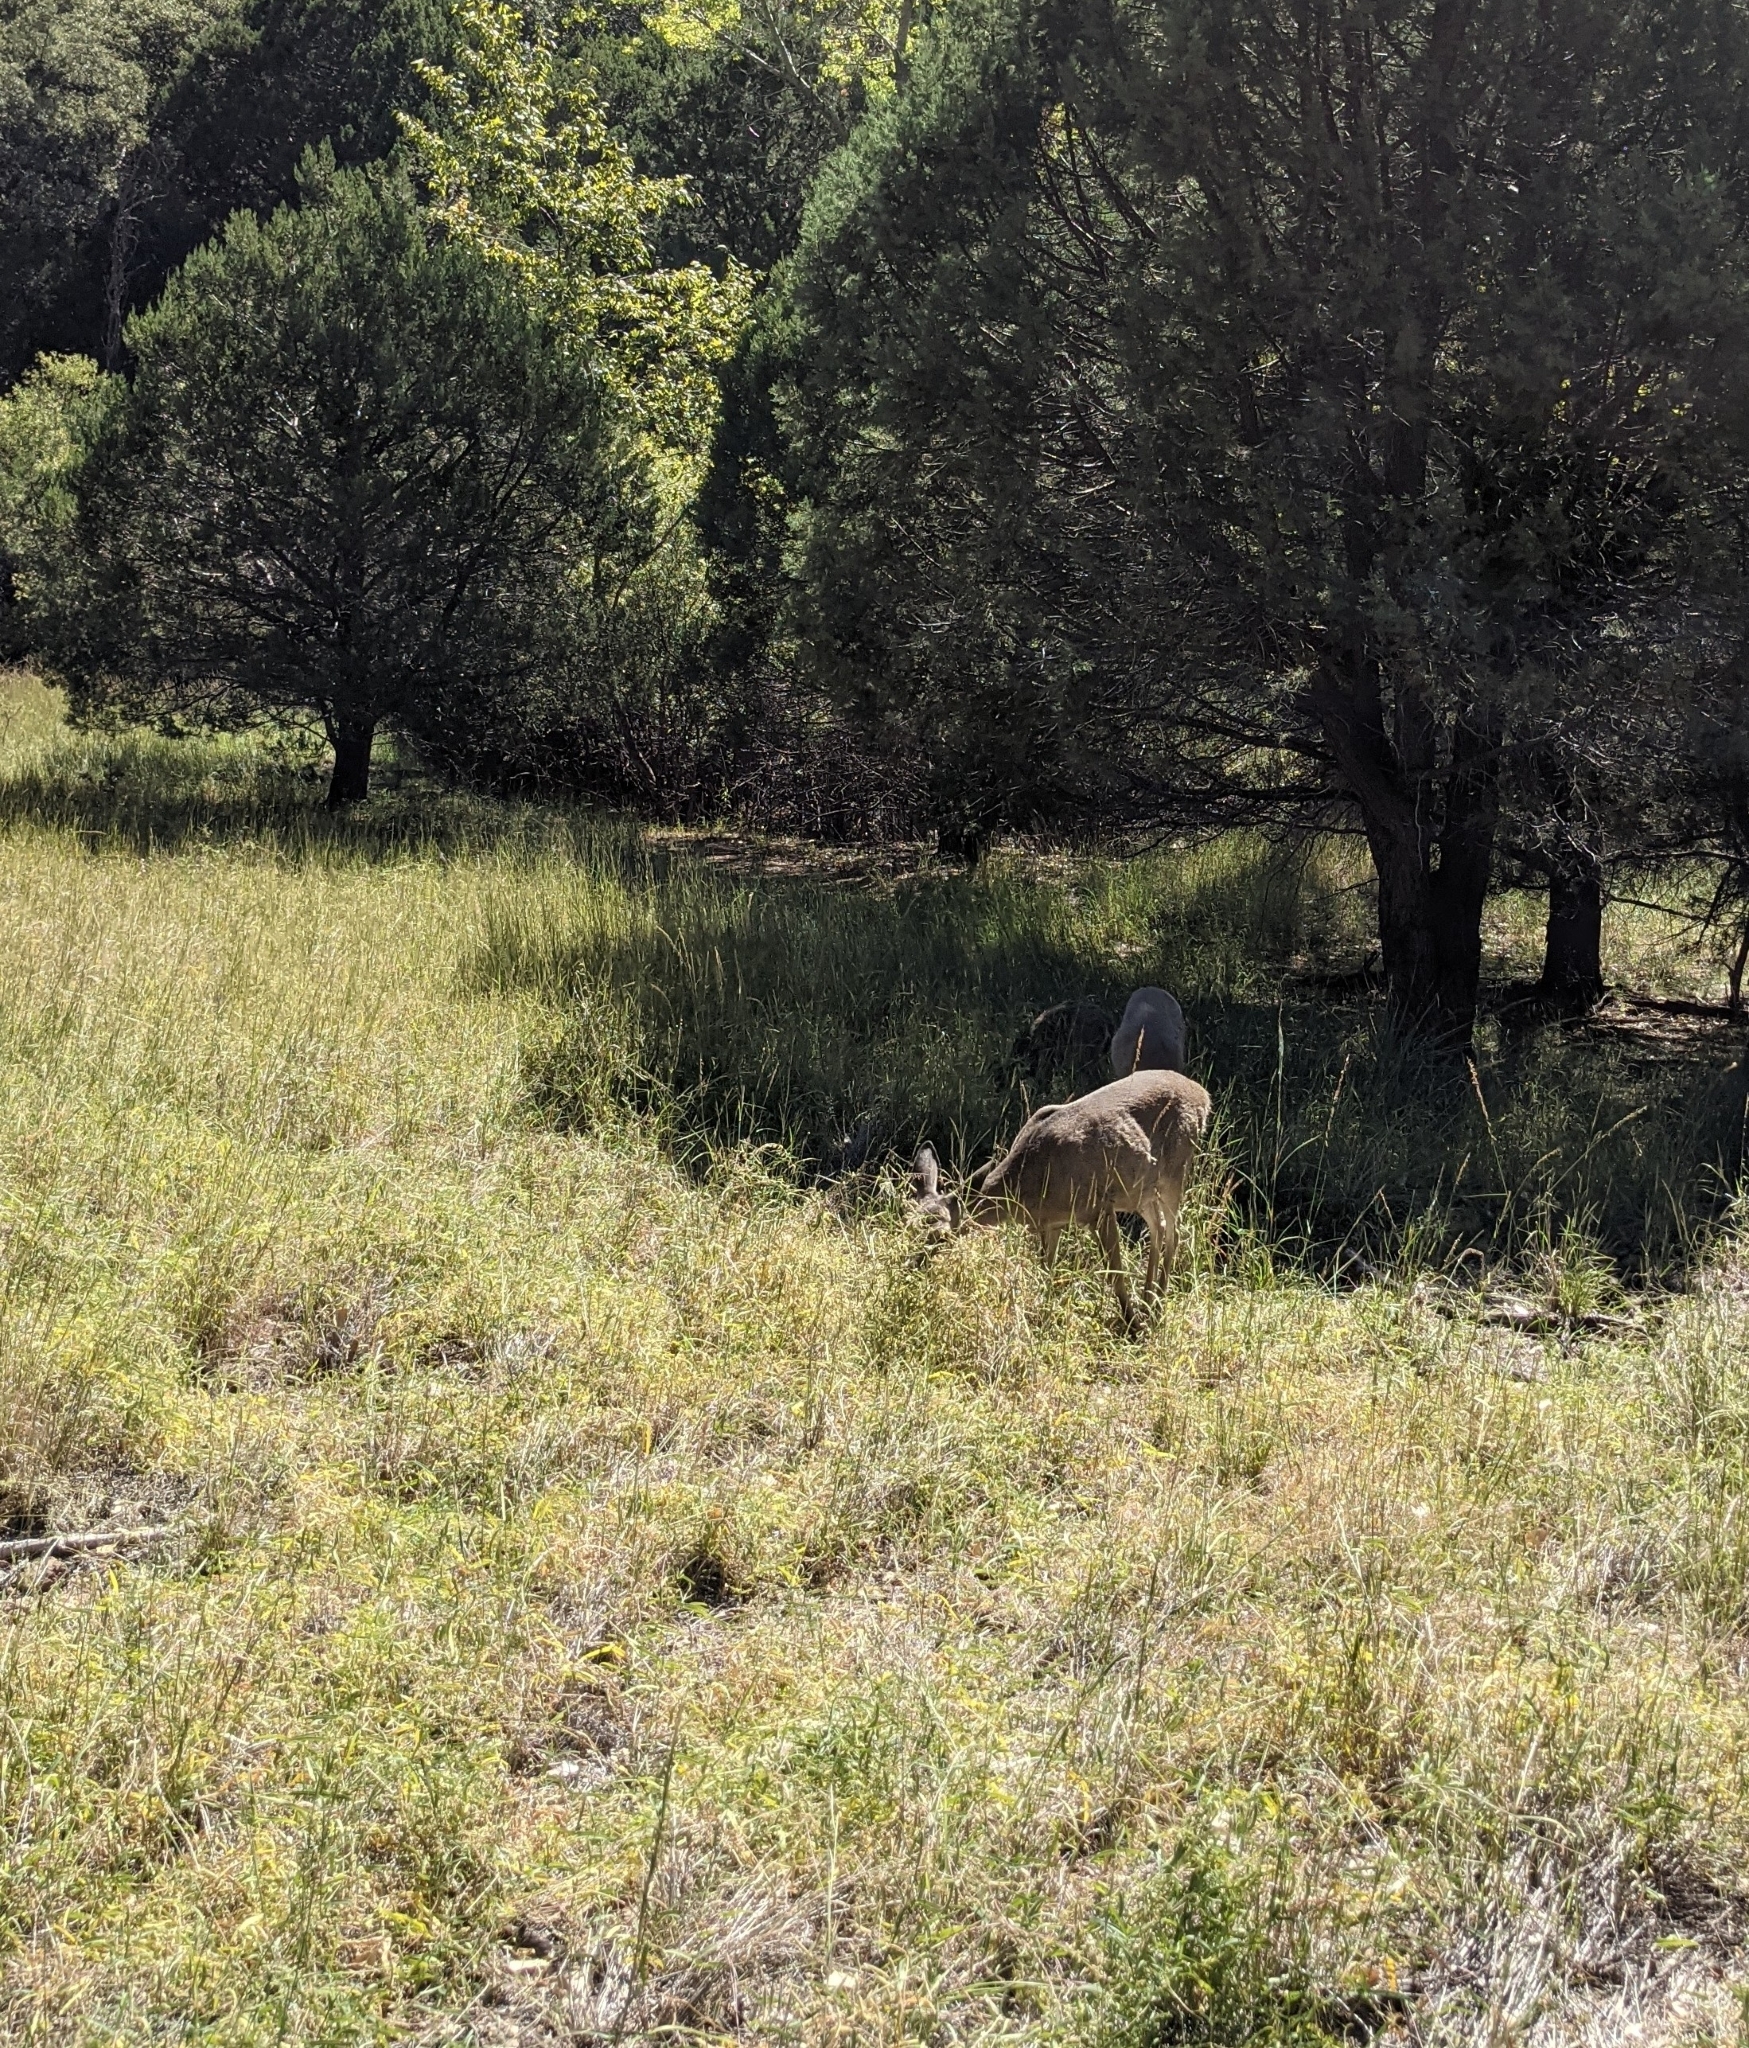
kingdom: Animalia
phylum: Chordata
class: Mammalia
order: Artiodactyla
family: Cervidae
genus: Odocoileus
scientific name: Odocoileus virginianus
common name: White-tailed deer
